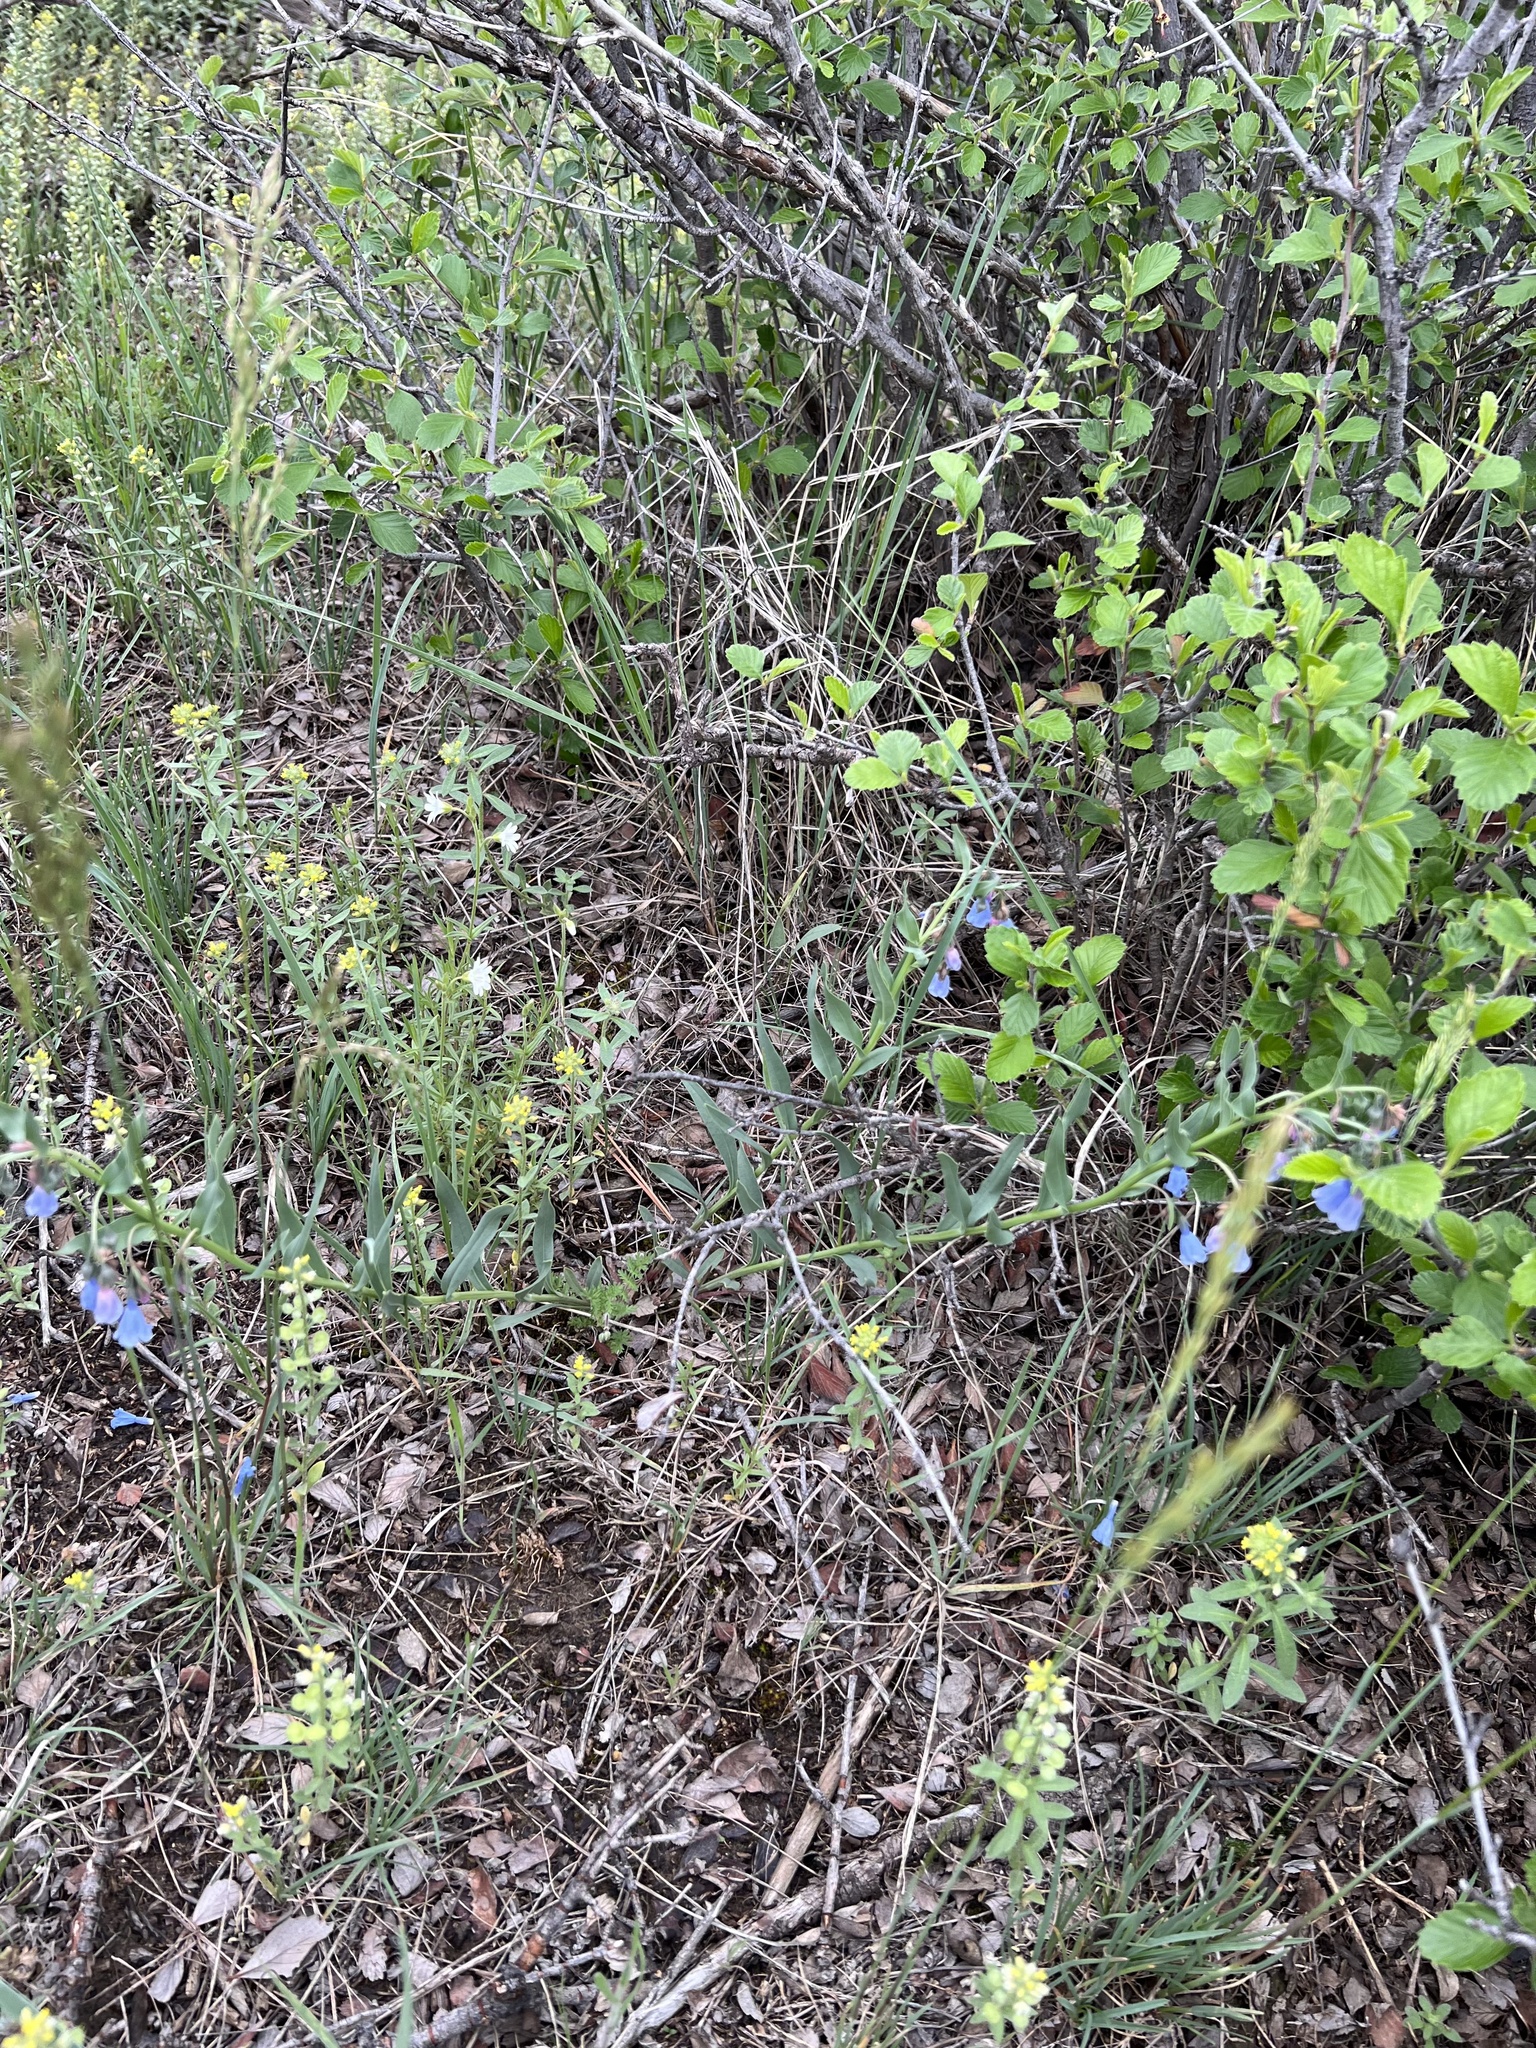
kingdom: Plantae
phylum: Tracheophyta
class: Magnoliopsida
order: Boraginales
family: Boraginaceae
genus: Mertensia
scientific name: Mertensia lanceolata
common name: Lance-leaved bluebells
